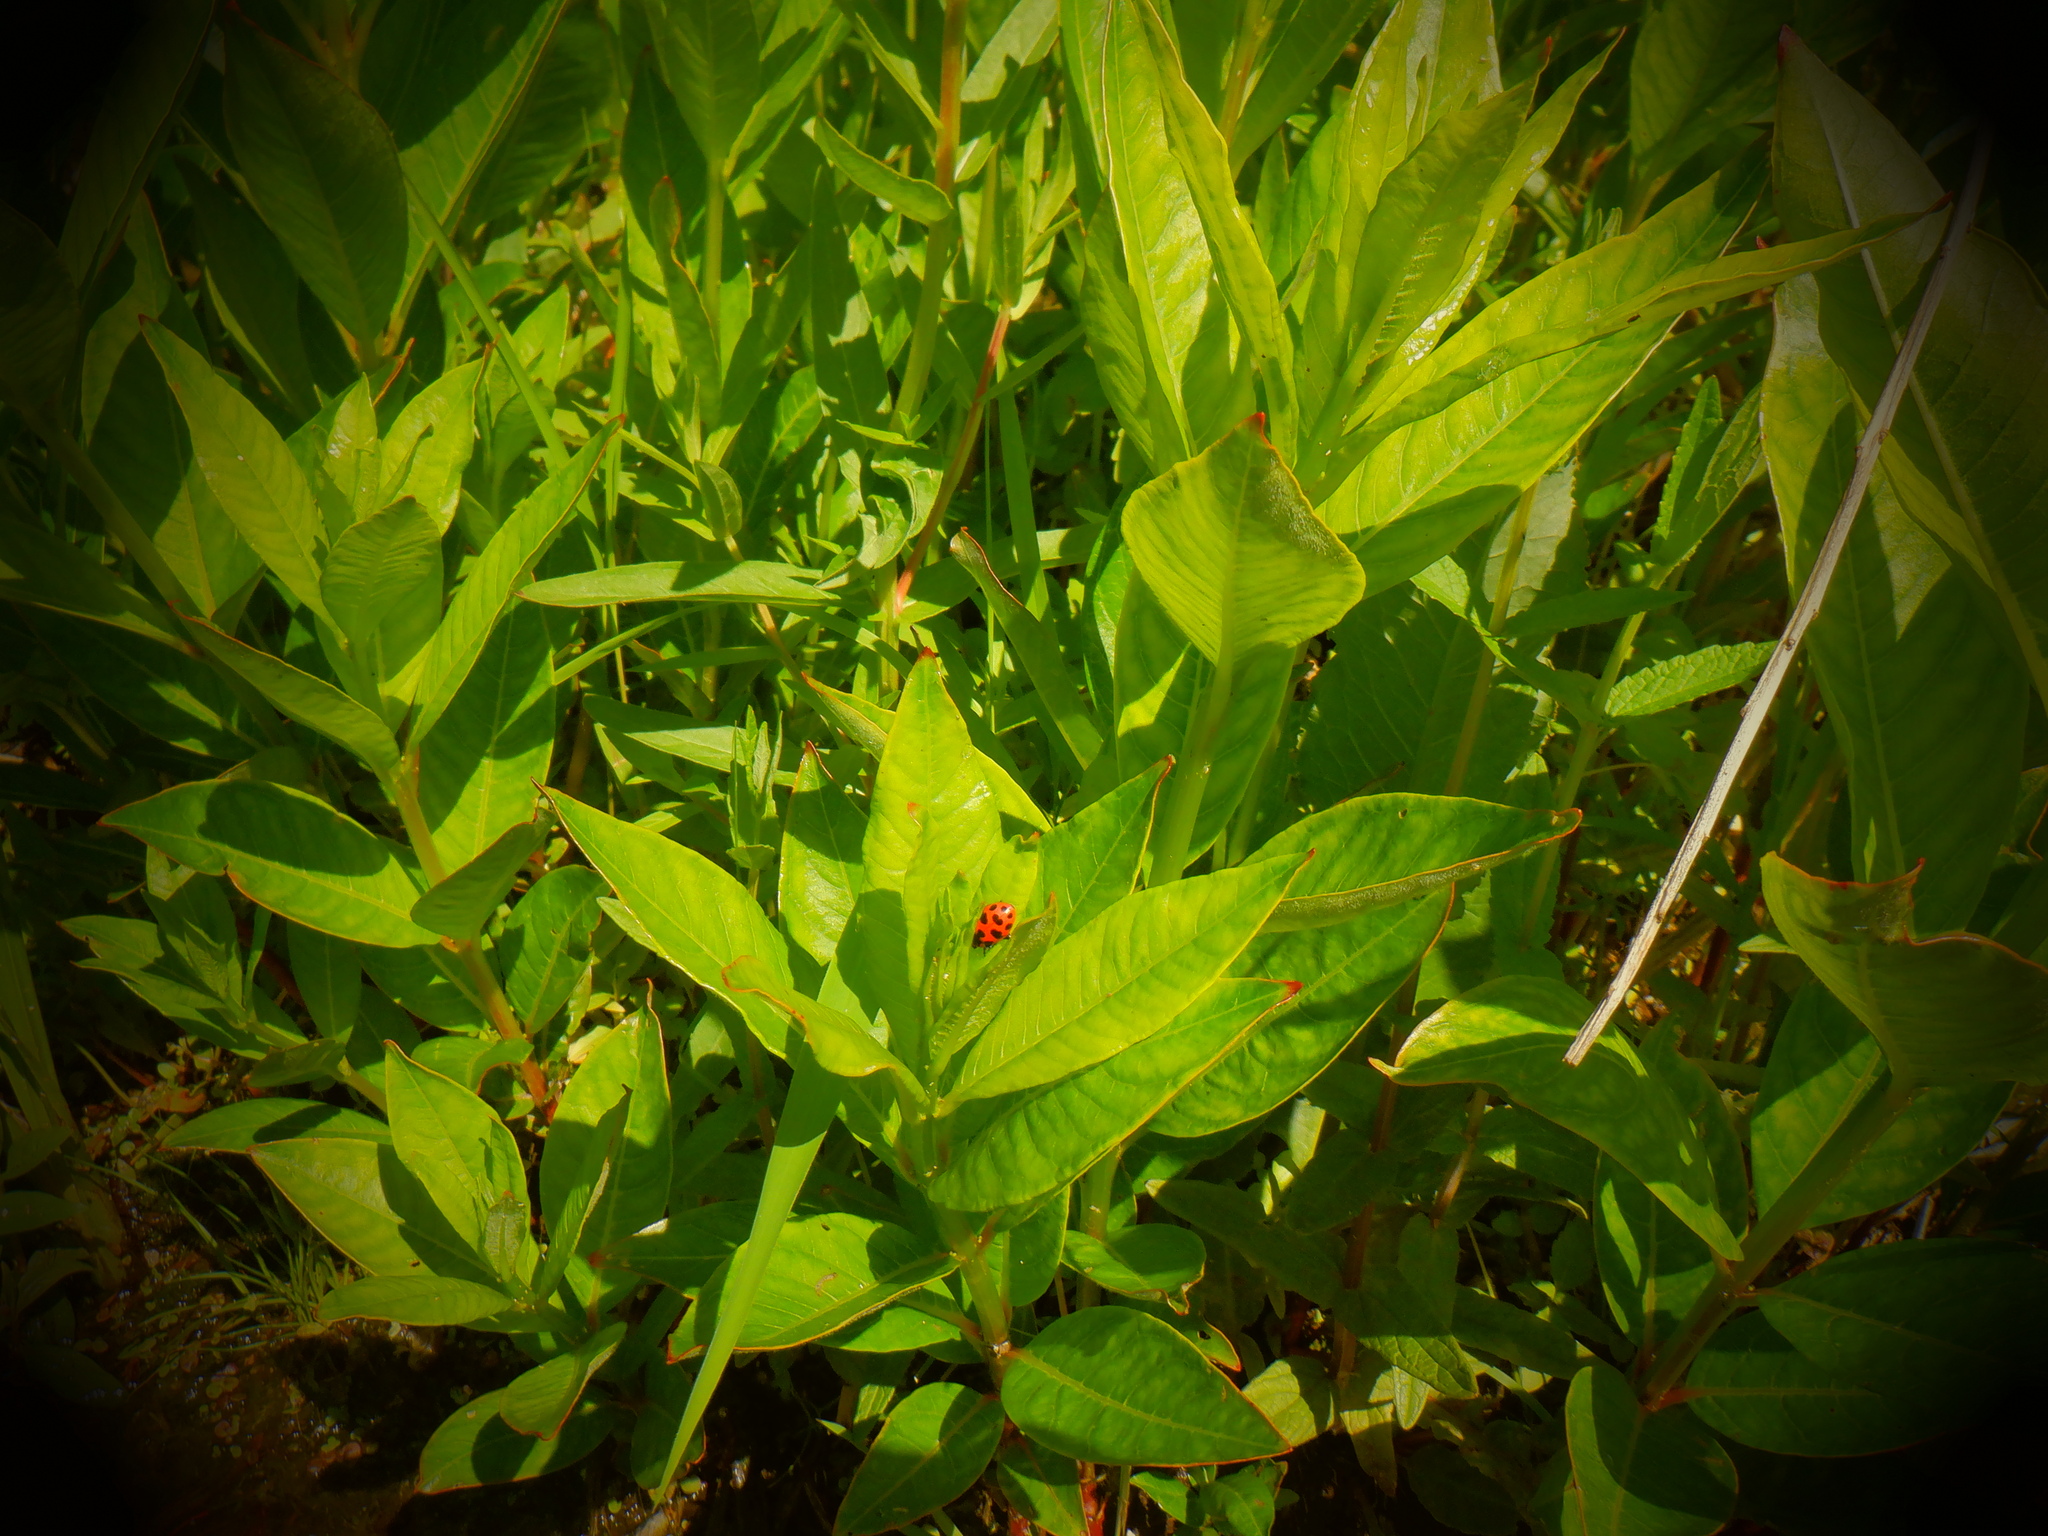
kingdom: Animalia
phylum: Arthropoda
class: Insecta
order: Coleoptera
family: Coccinellidae
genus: Coleomegilla
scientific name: Coleomegilla maculata
